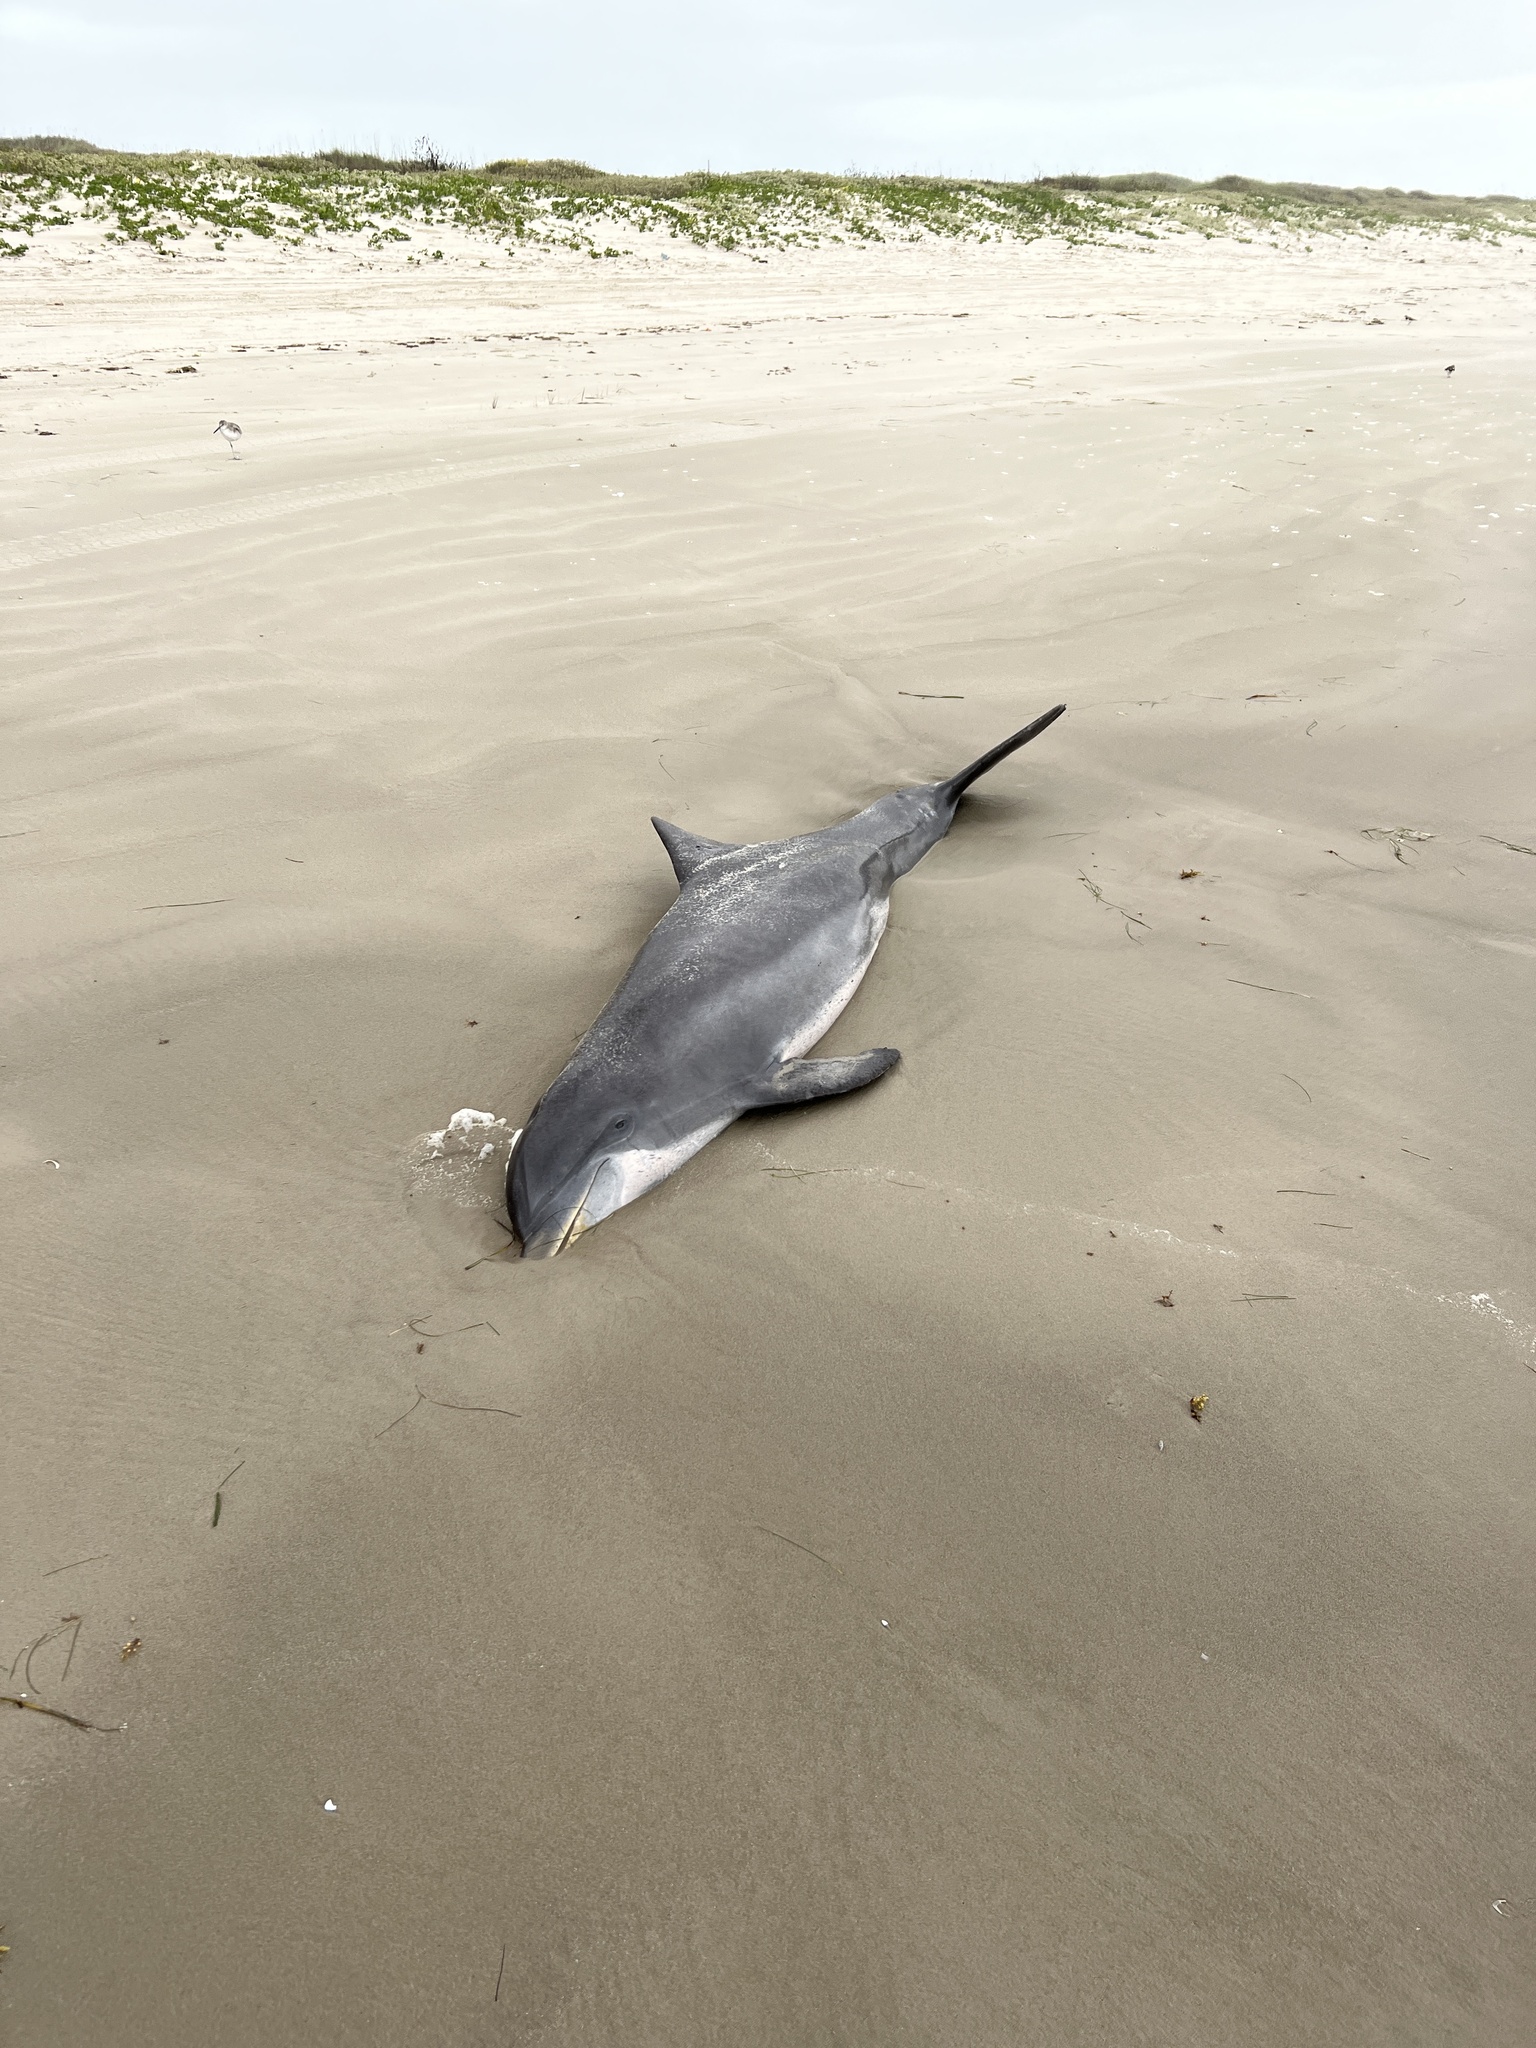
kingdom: Animalia
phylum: Chordata
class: Mammalia
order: Cetacea
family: Delphinidae
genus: Tursiops
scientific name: Tursiops truncatus
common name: Bottlenose dolphin
